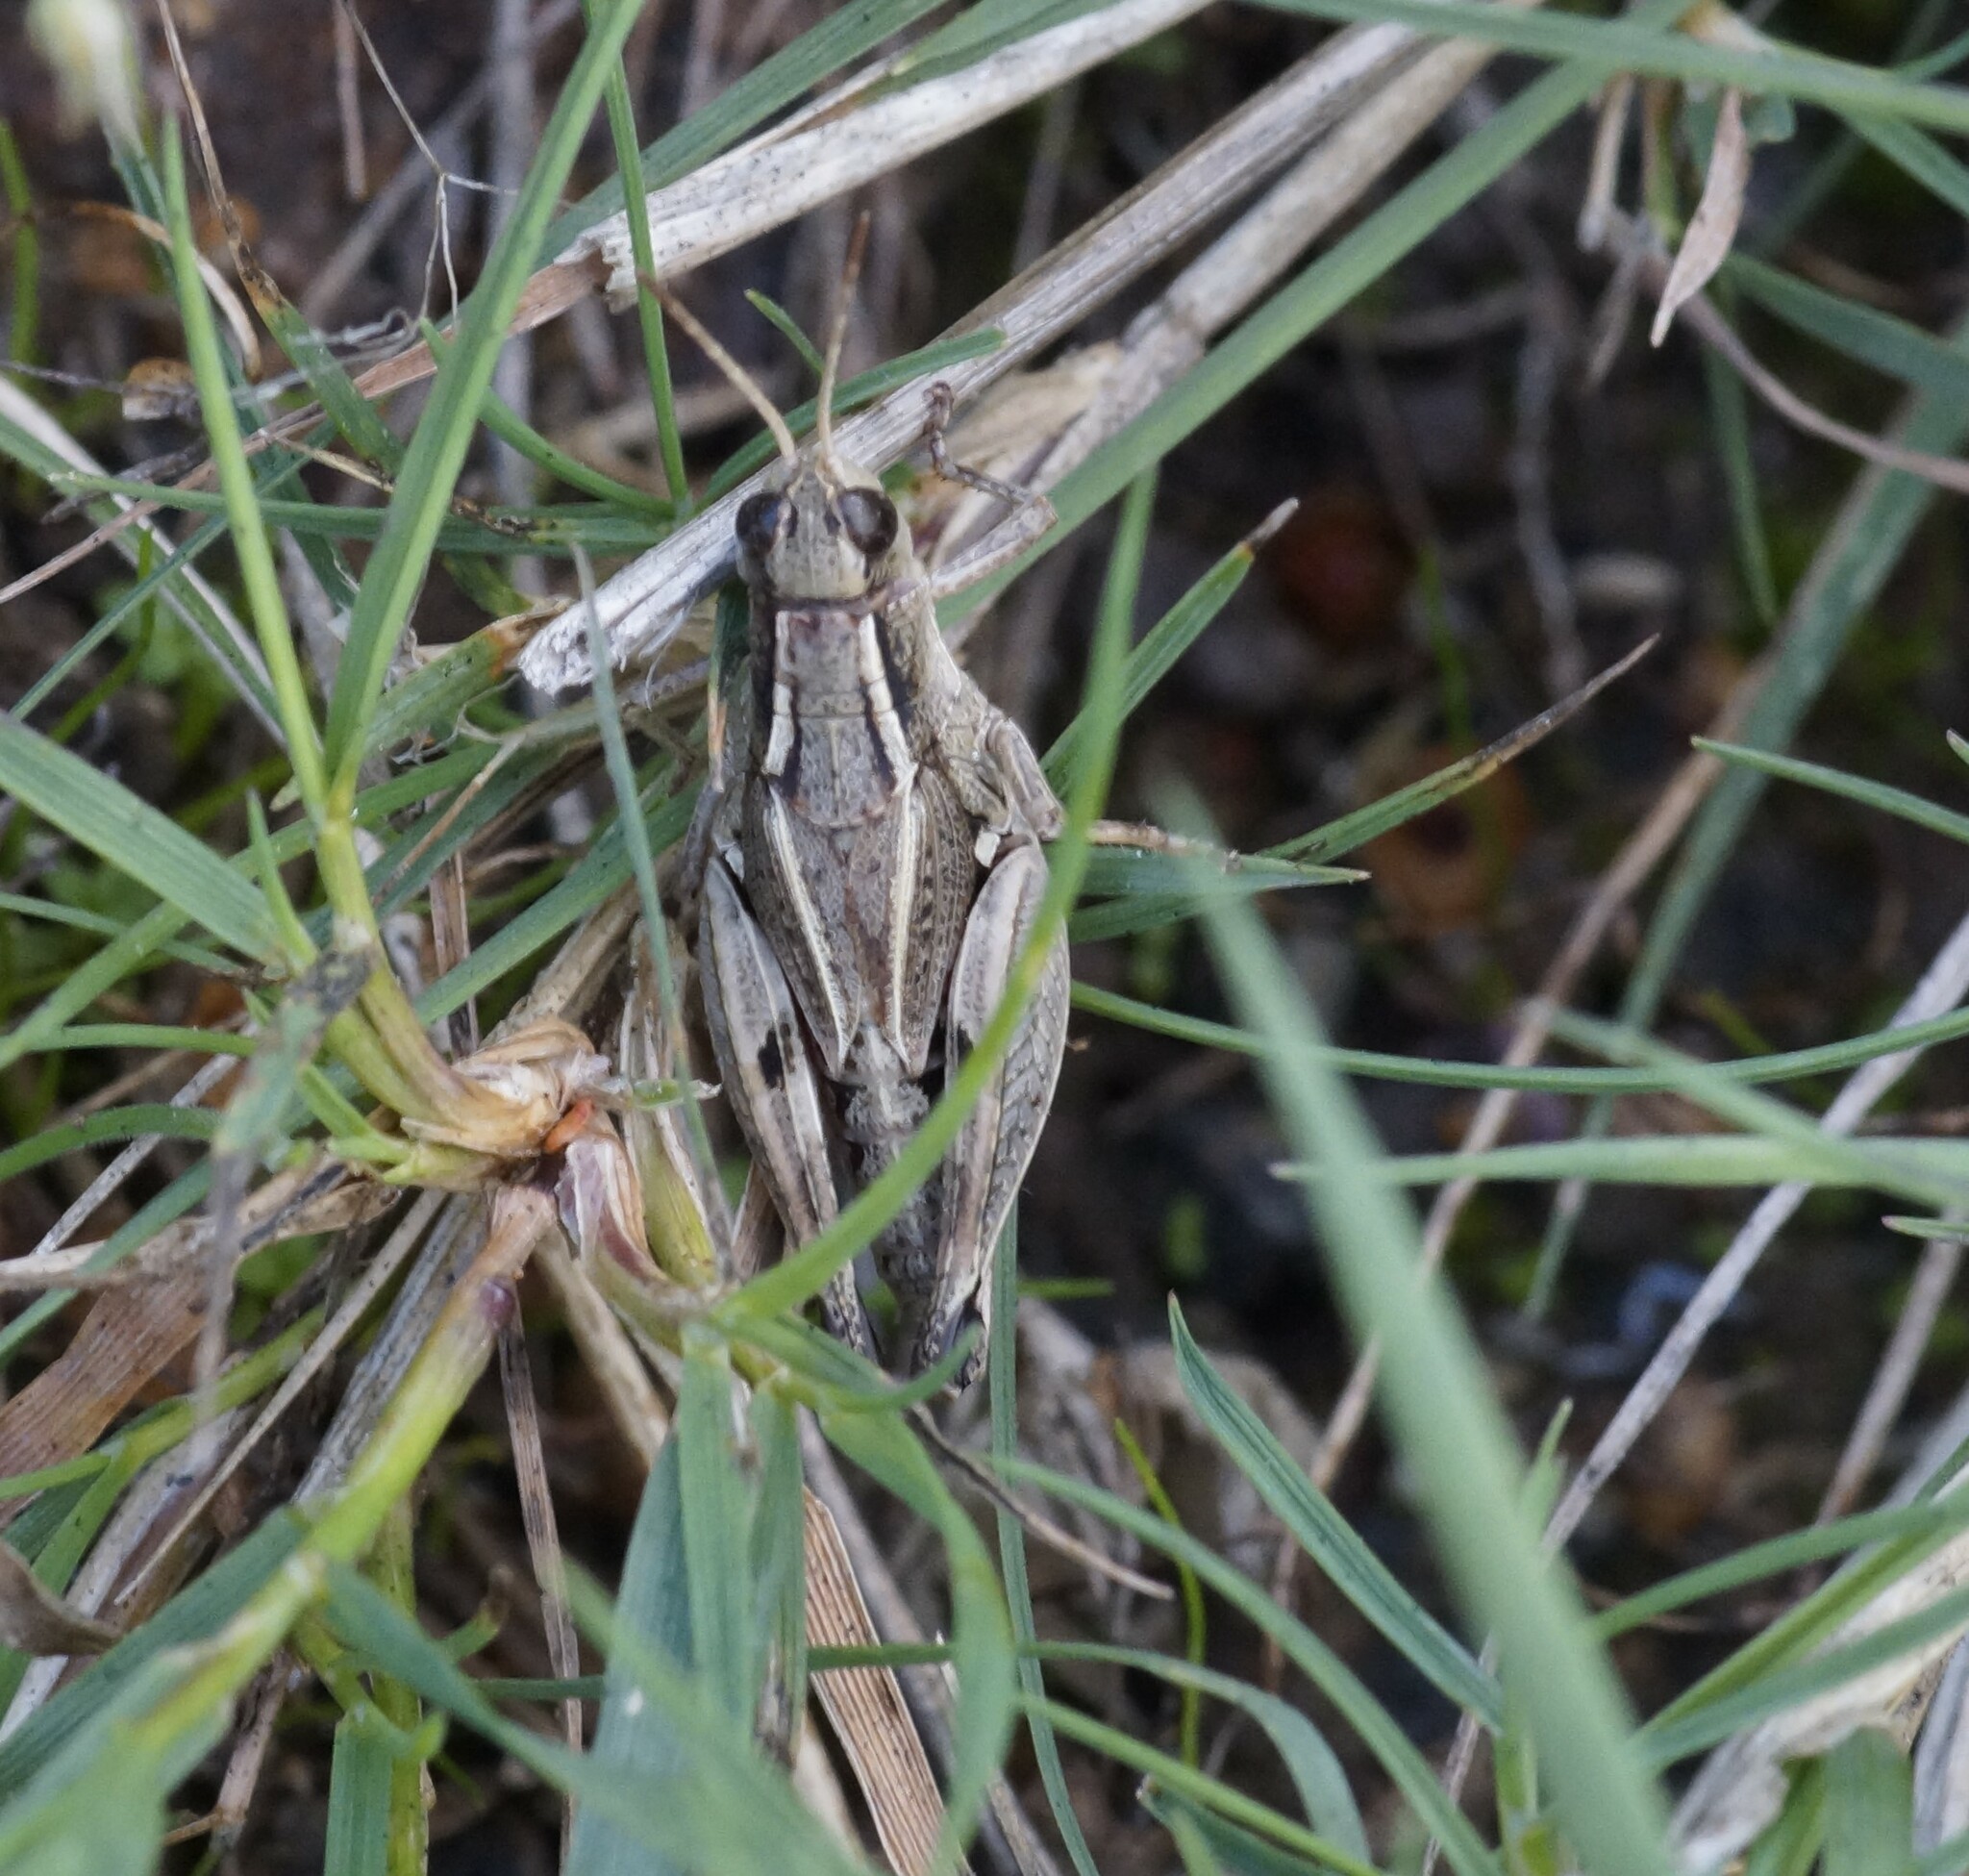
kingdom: Animalia
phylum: Arthropoda
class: Insecta
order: Orthoptera
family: Acrididae
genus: Phaulacridium
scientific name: Phaulacridium vittatum
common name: Wingless grasshopper
